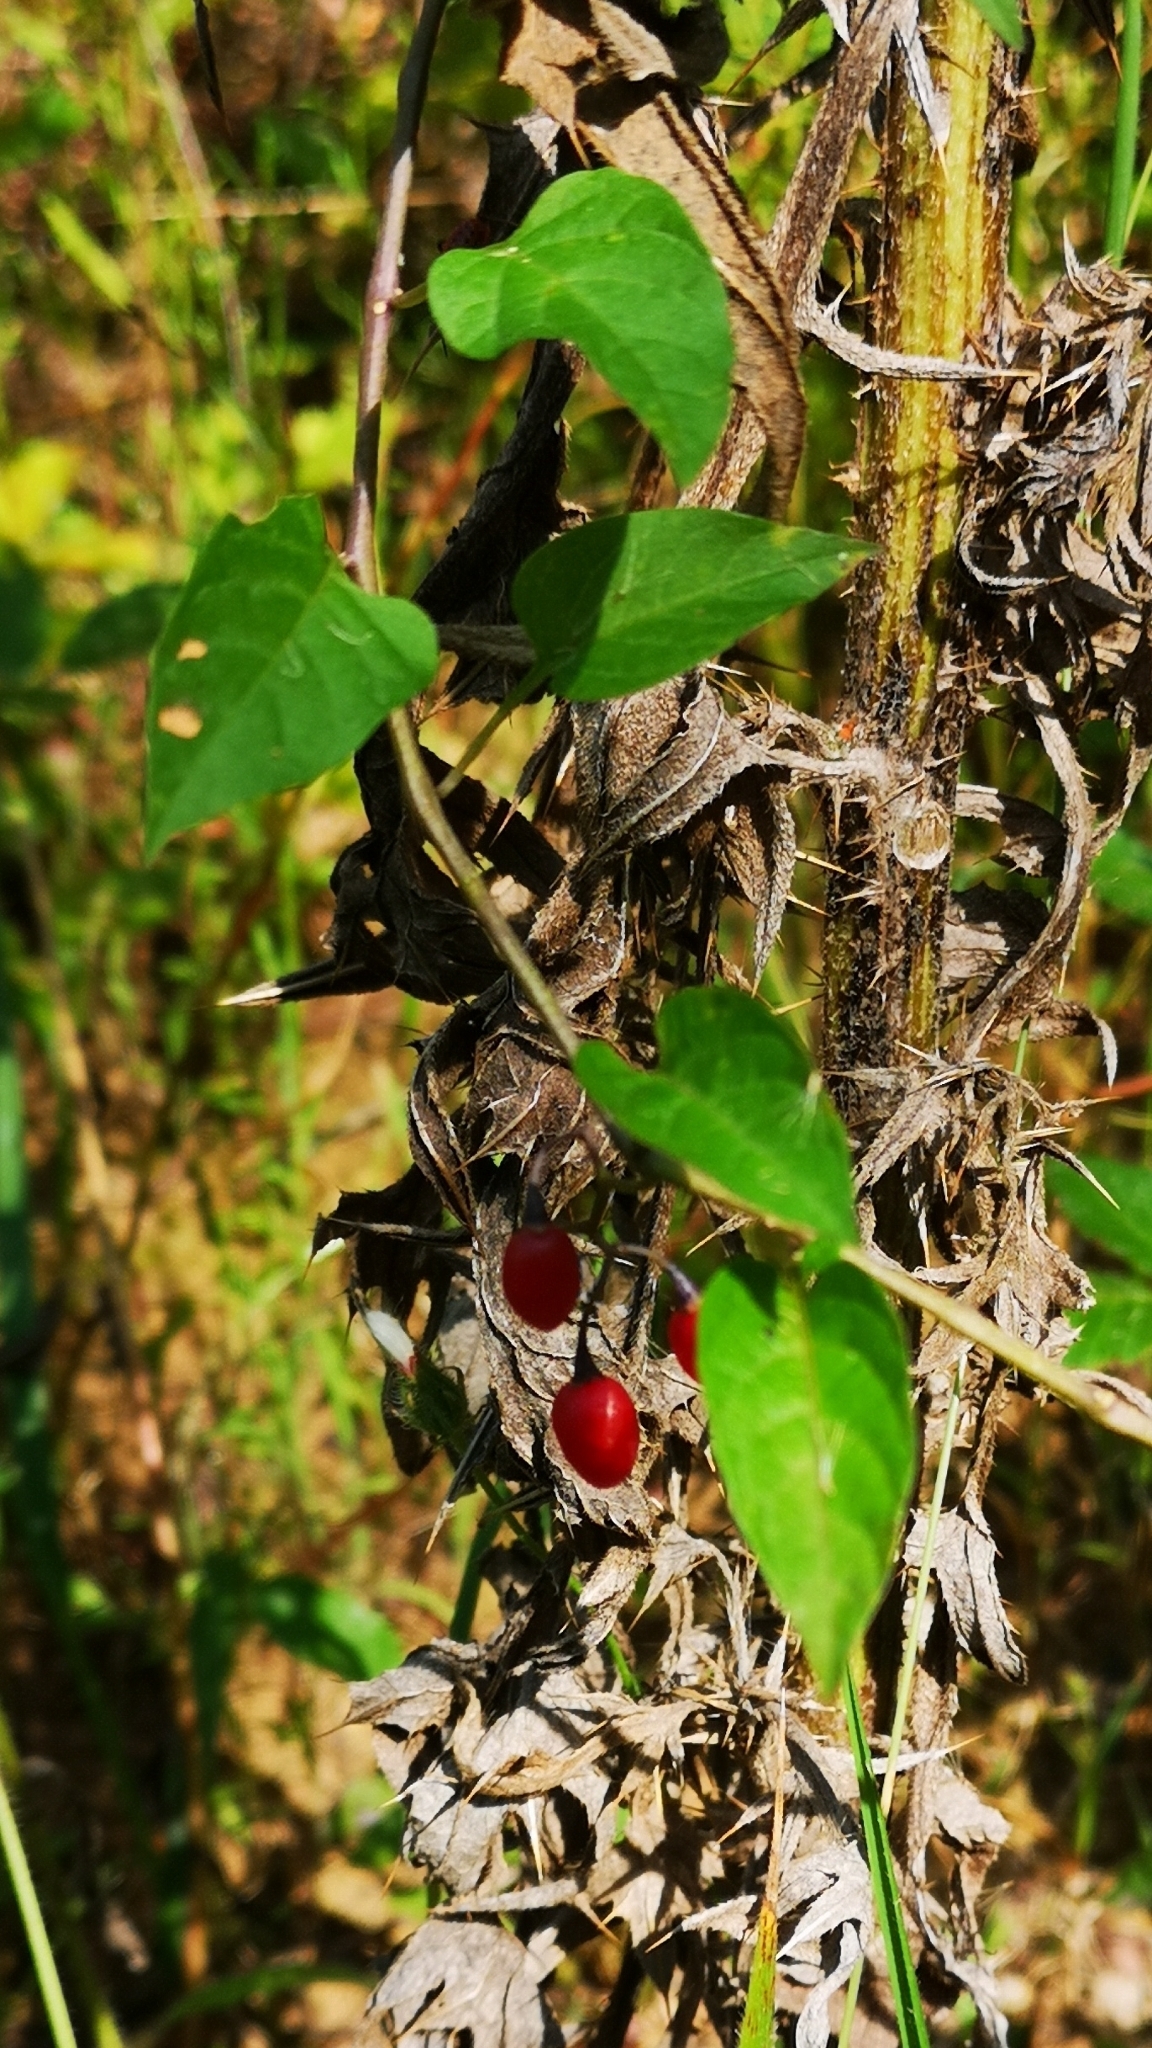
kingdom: Plantae
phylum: Tracheophyta
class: Magnoliopsida
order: Solanales
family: Solanaceae
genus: Solanum
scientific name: Solanum dulcamara
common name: Climbing nightshade
